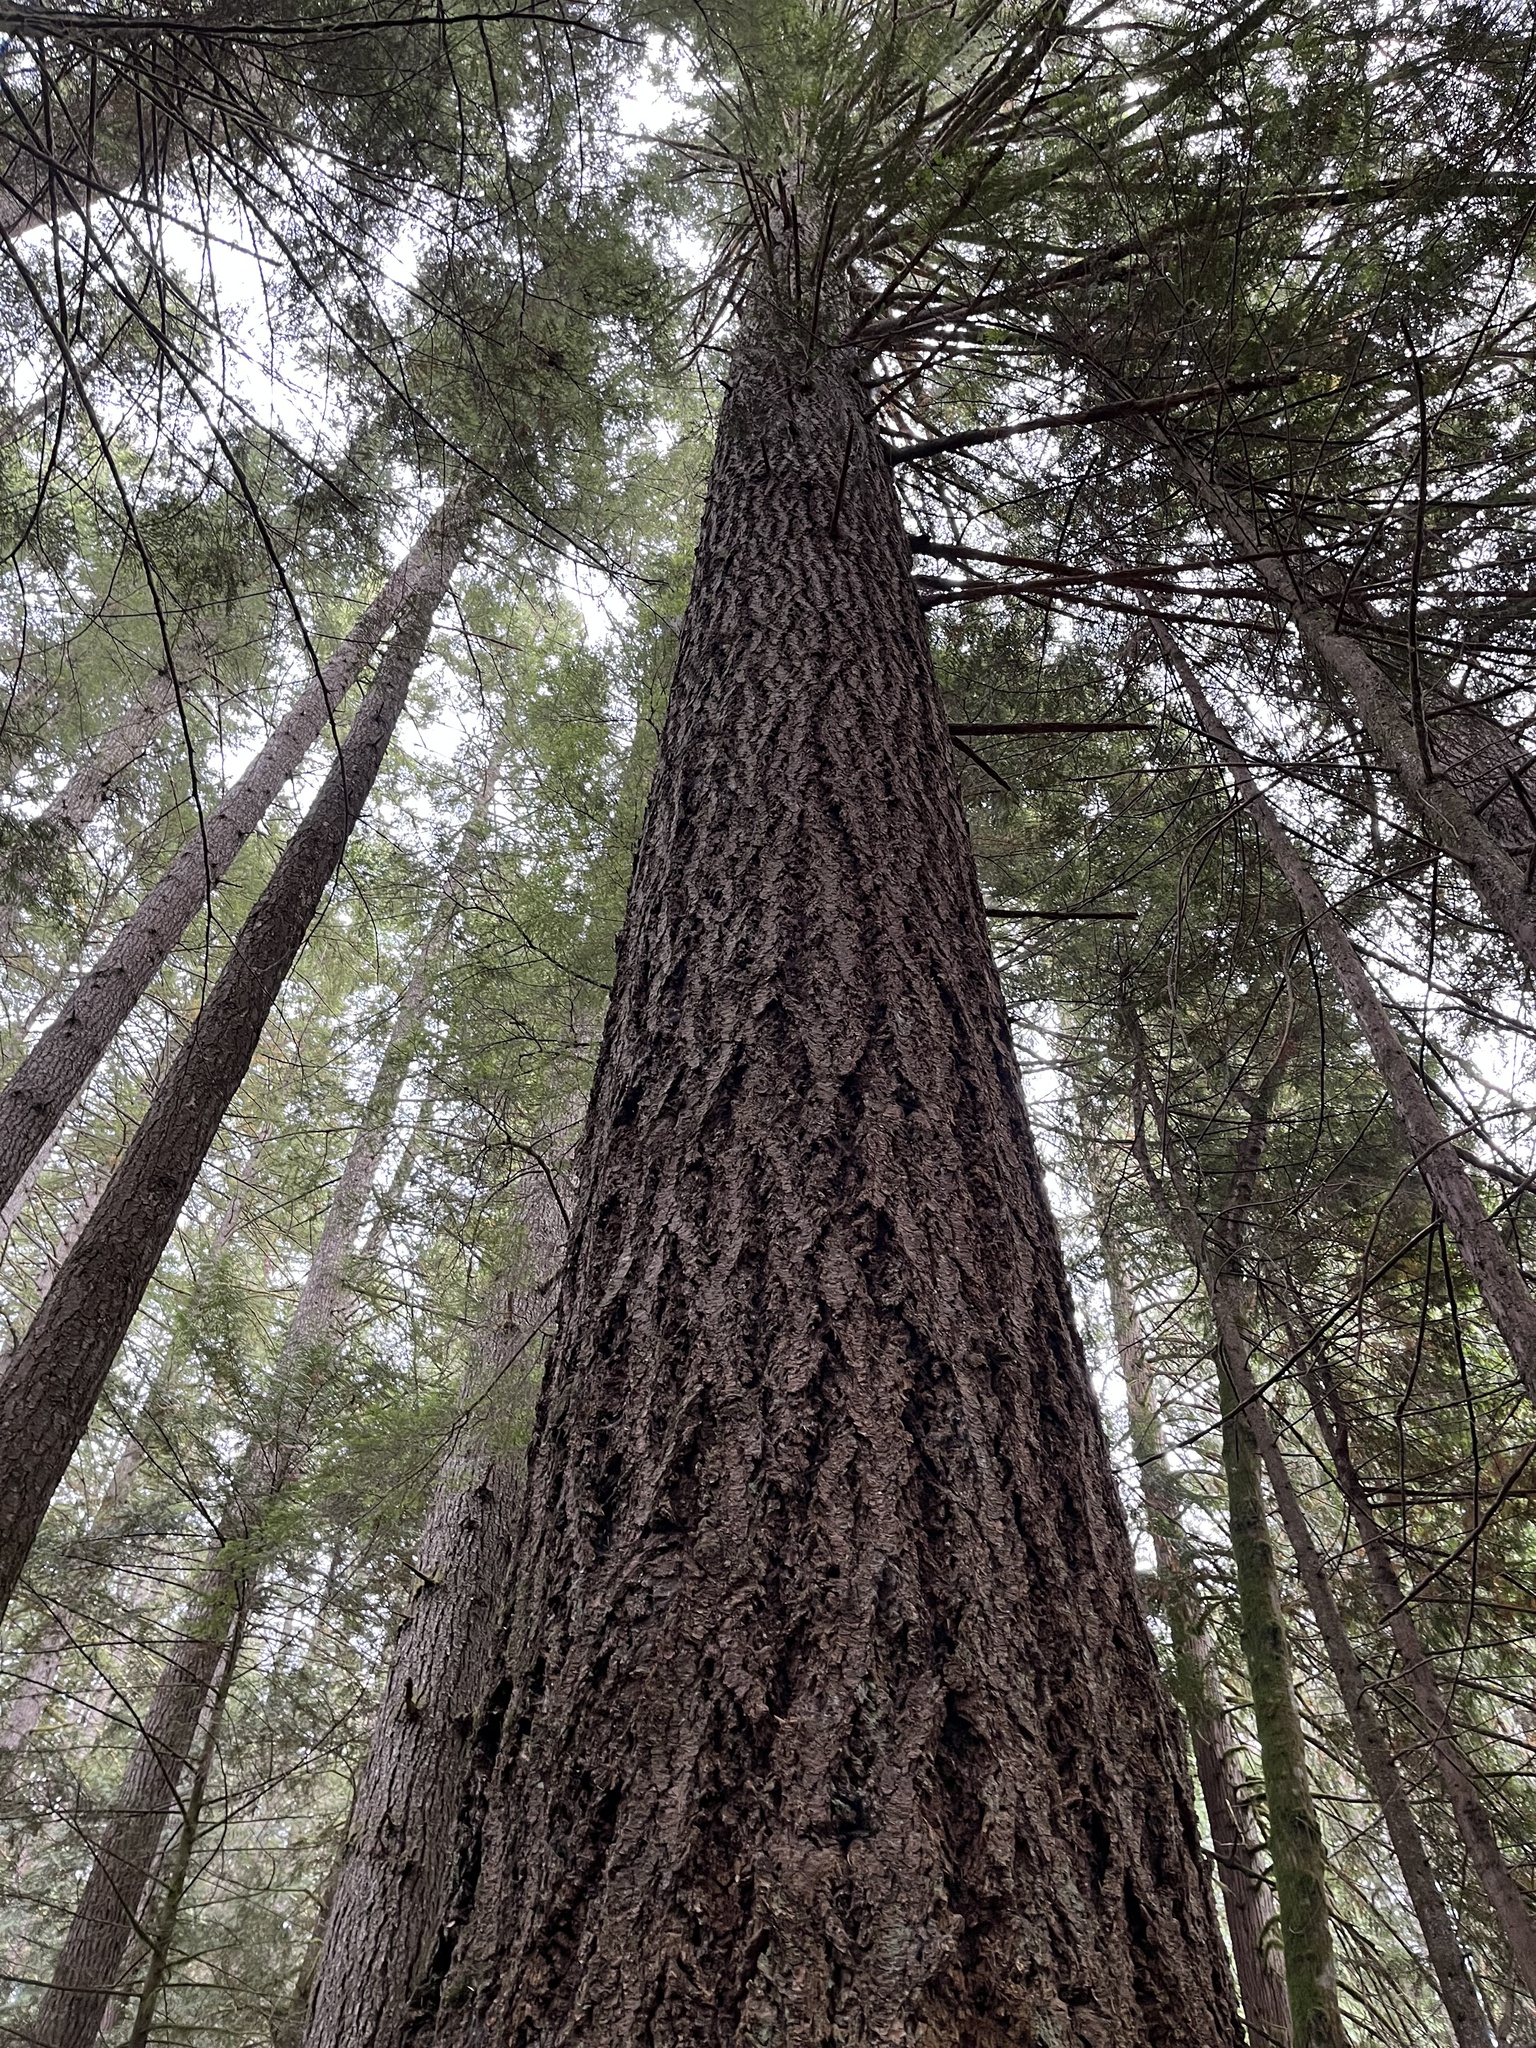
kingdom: Plantae
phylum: Tracheophyta
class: Pinopsida
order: Pinales
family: Pinaceae
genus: Pseudotsuga
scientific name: Pseudotsuga menziesii
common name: Douglas fir
